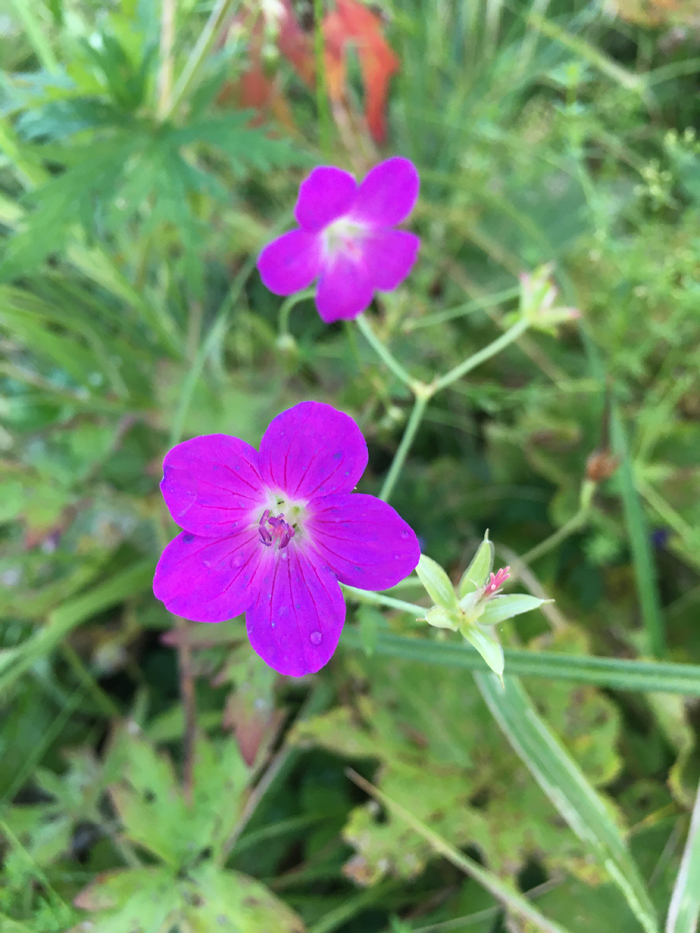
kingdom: Plantae
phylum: Tracheophyta
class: Magnoliopsida
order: Geraniales
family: Geraniaceae
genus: Geranium
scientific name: Geranium palustre
